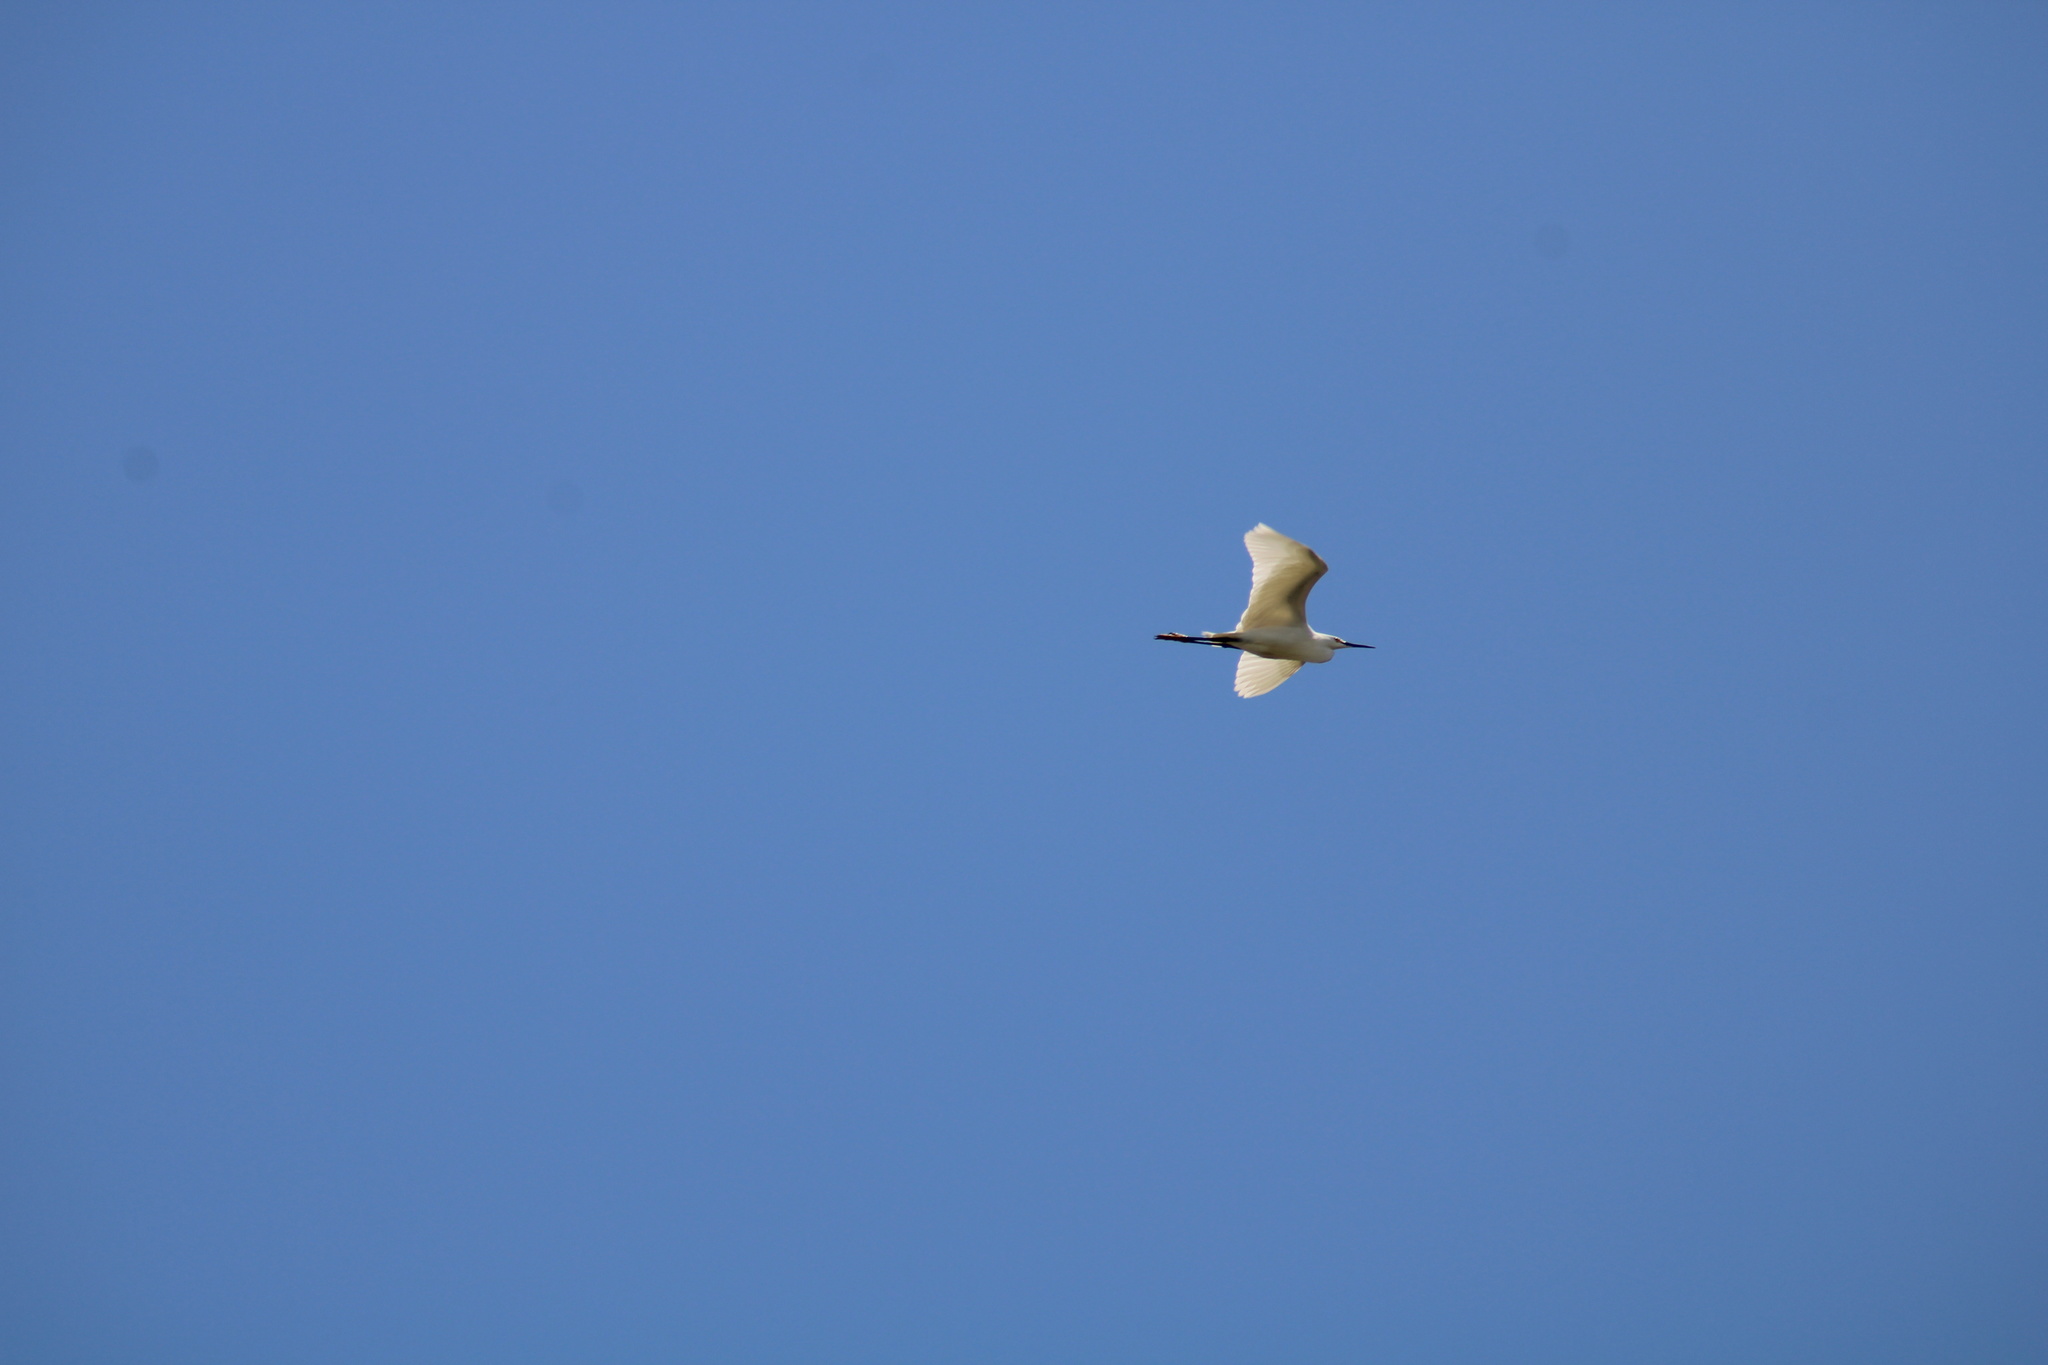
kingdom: Animalia
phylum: Chordata
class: Aves
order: Pelecaniformes
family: Ardeidae
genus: Egretta
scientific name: Egretta thula
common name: Snowy egret
